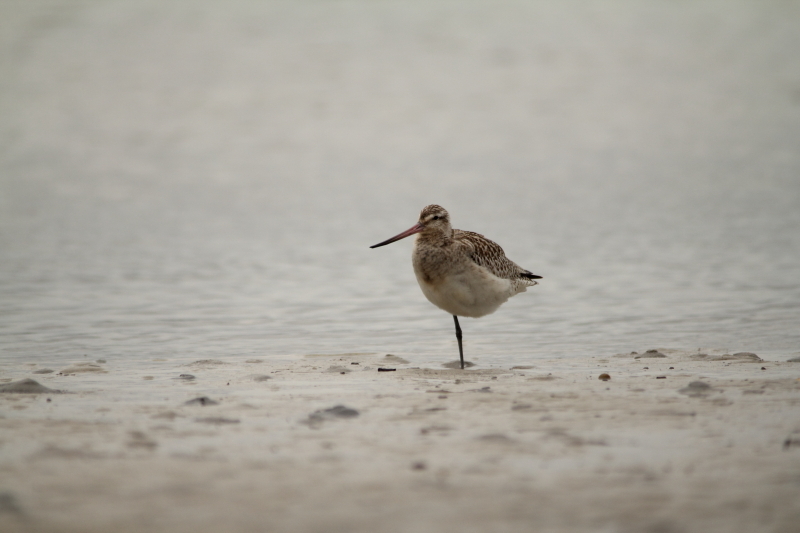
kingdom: Animalia
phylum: Chordata
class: Aves
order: Charadriiformes
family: Scolopacidae
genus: Limosa
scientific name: Limosa lapponica
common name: Bar-tailed godwit
